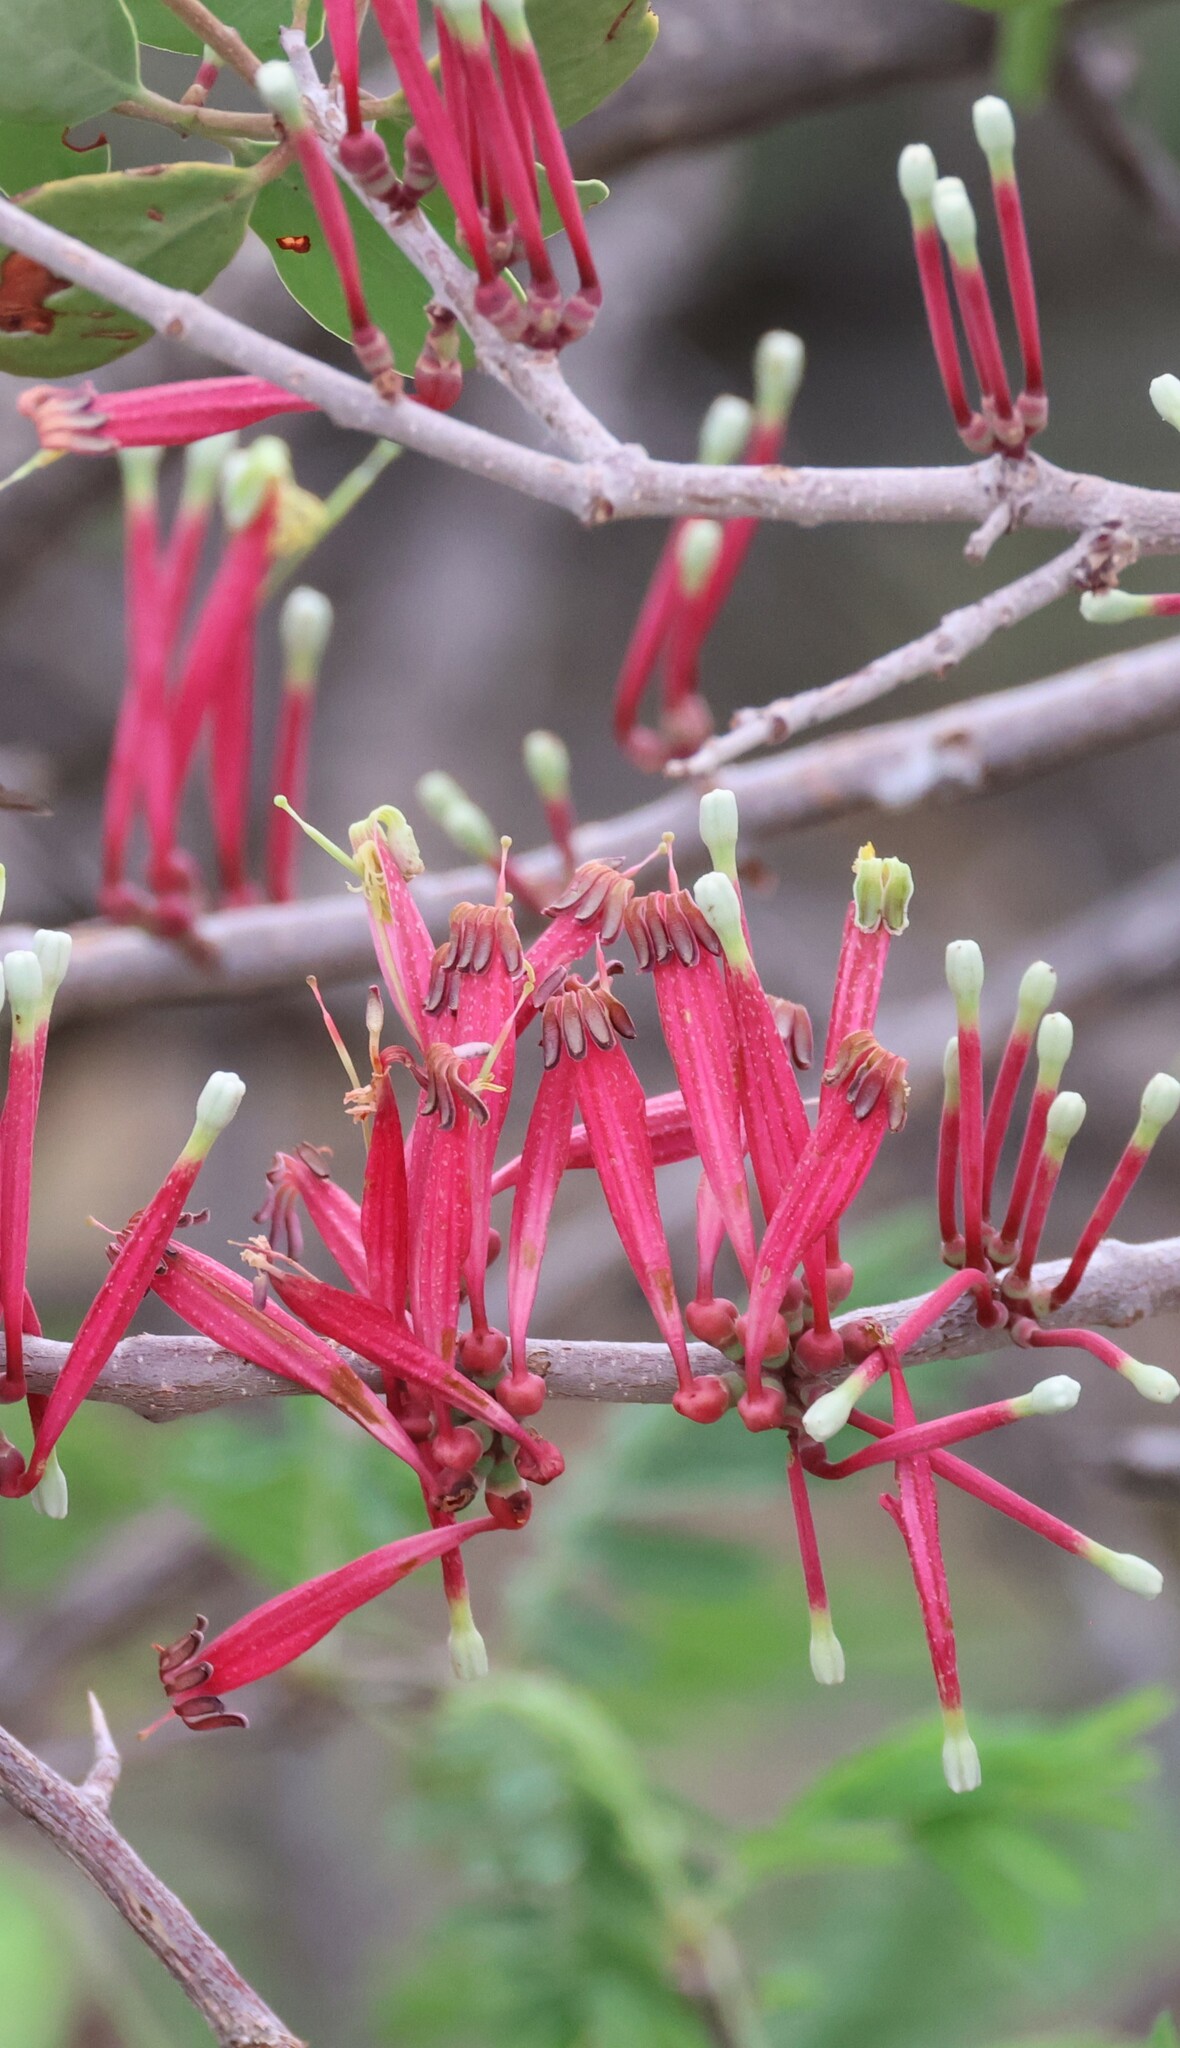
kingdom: Plantae
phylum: Tracheophyta
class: Magnoliopsida
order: Santalales
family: Loranthaceae
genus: Tapinanthus
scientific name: Tapinanthus oleifolius
